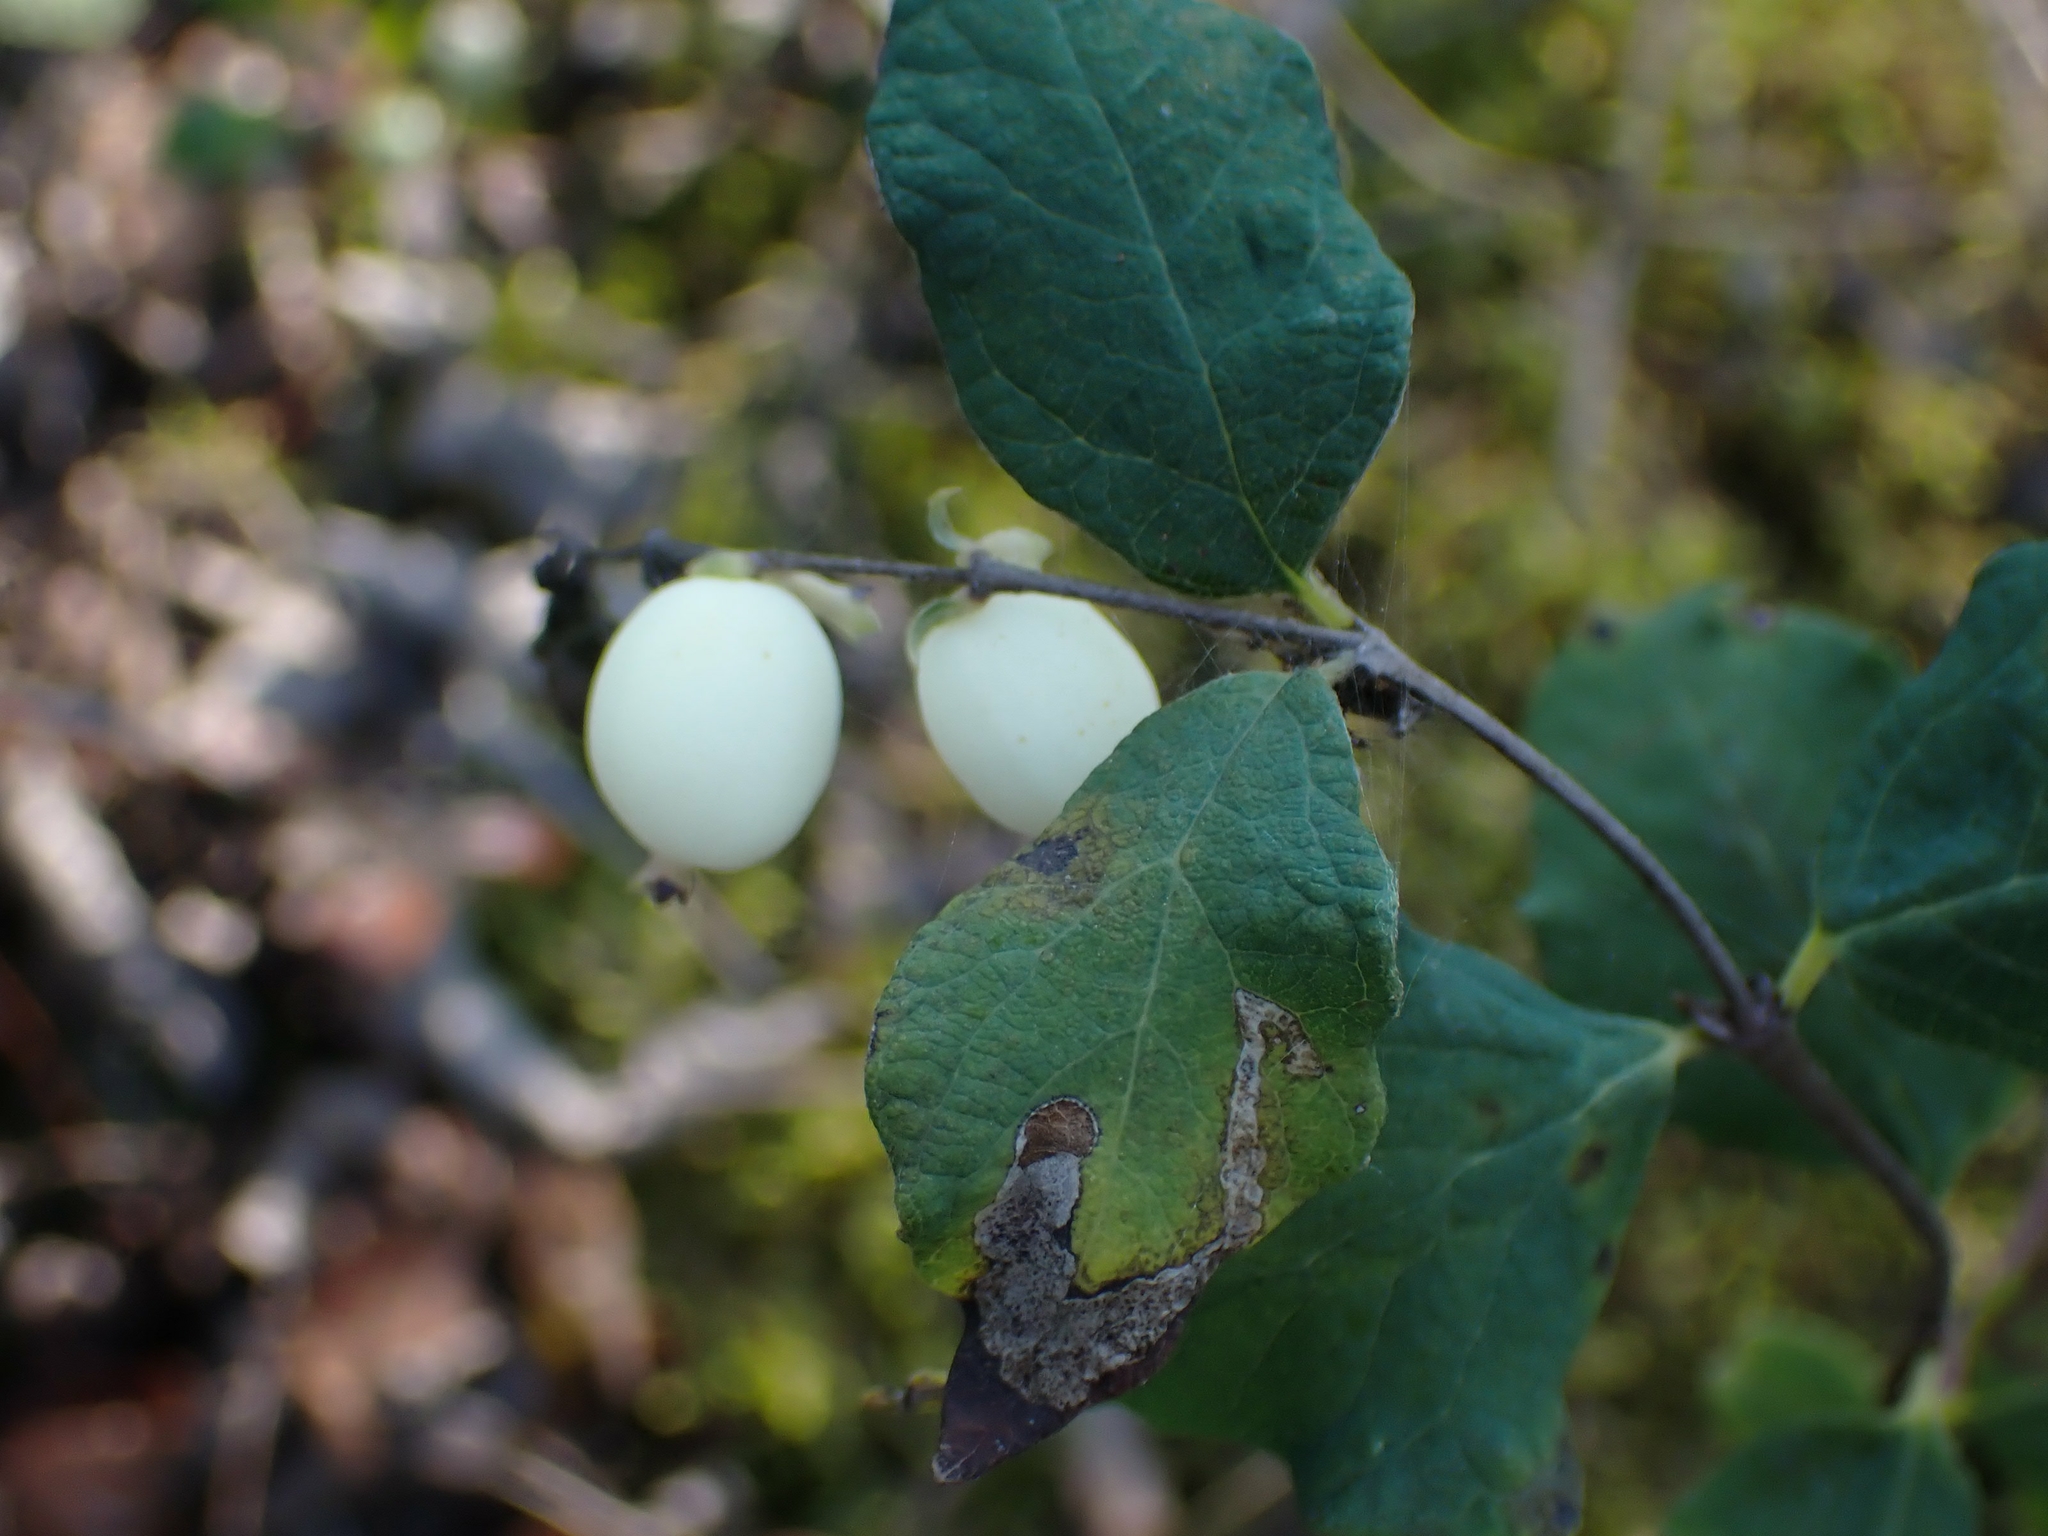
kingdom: Plantae
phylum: Tracheophyta
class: Magnoliopsida
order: Dipsacales
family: Caprifoliaceae
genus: Symphoricarpos
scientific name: Symphoricarpos albus
